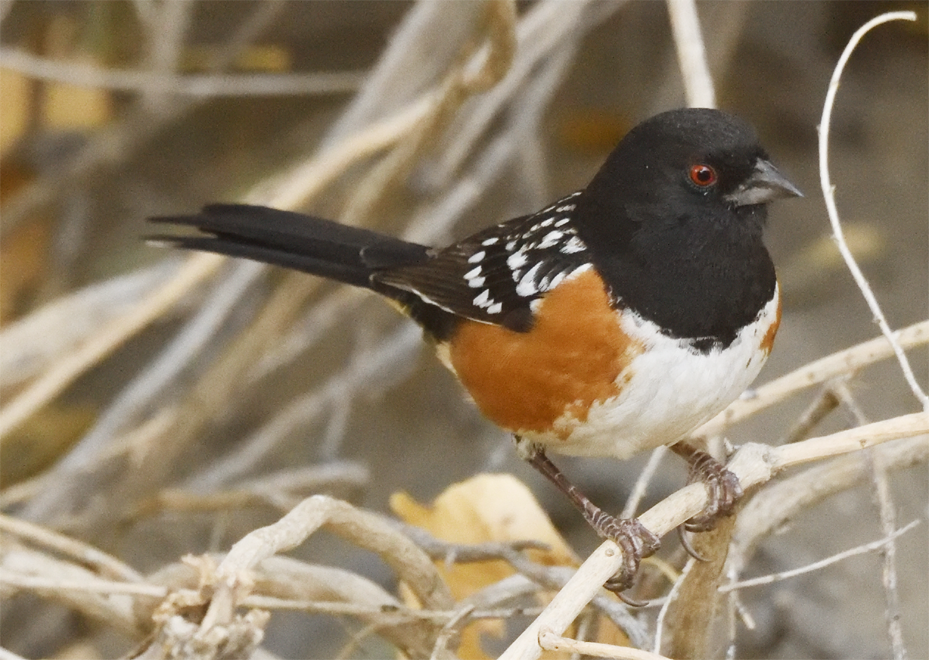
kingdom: Animalia
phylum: Chordata
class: Aves
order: Passeriformes
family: Passerellidae
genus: Pipilo
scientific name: Pipilo maculatus
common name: Spotted towhee
